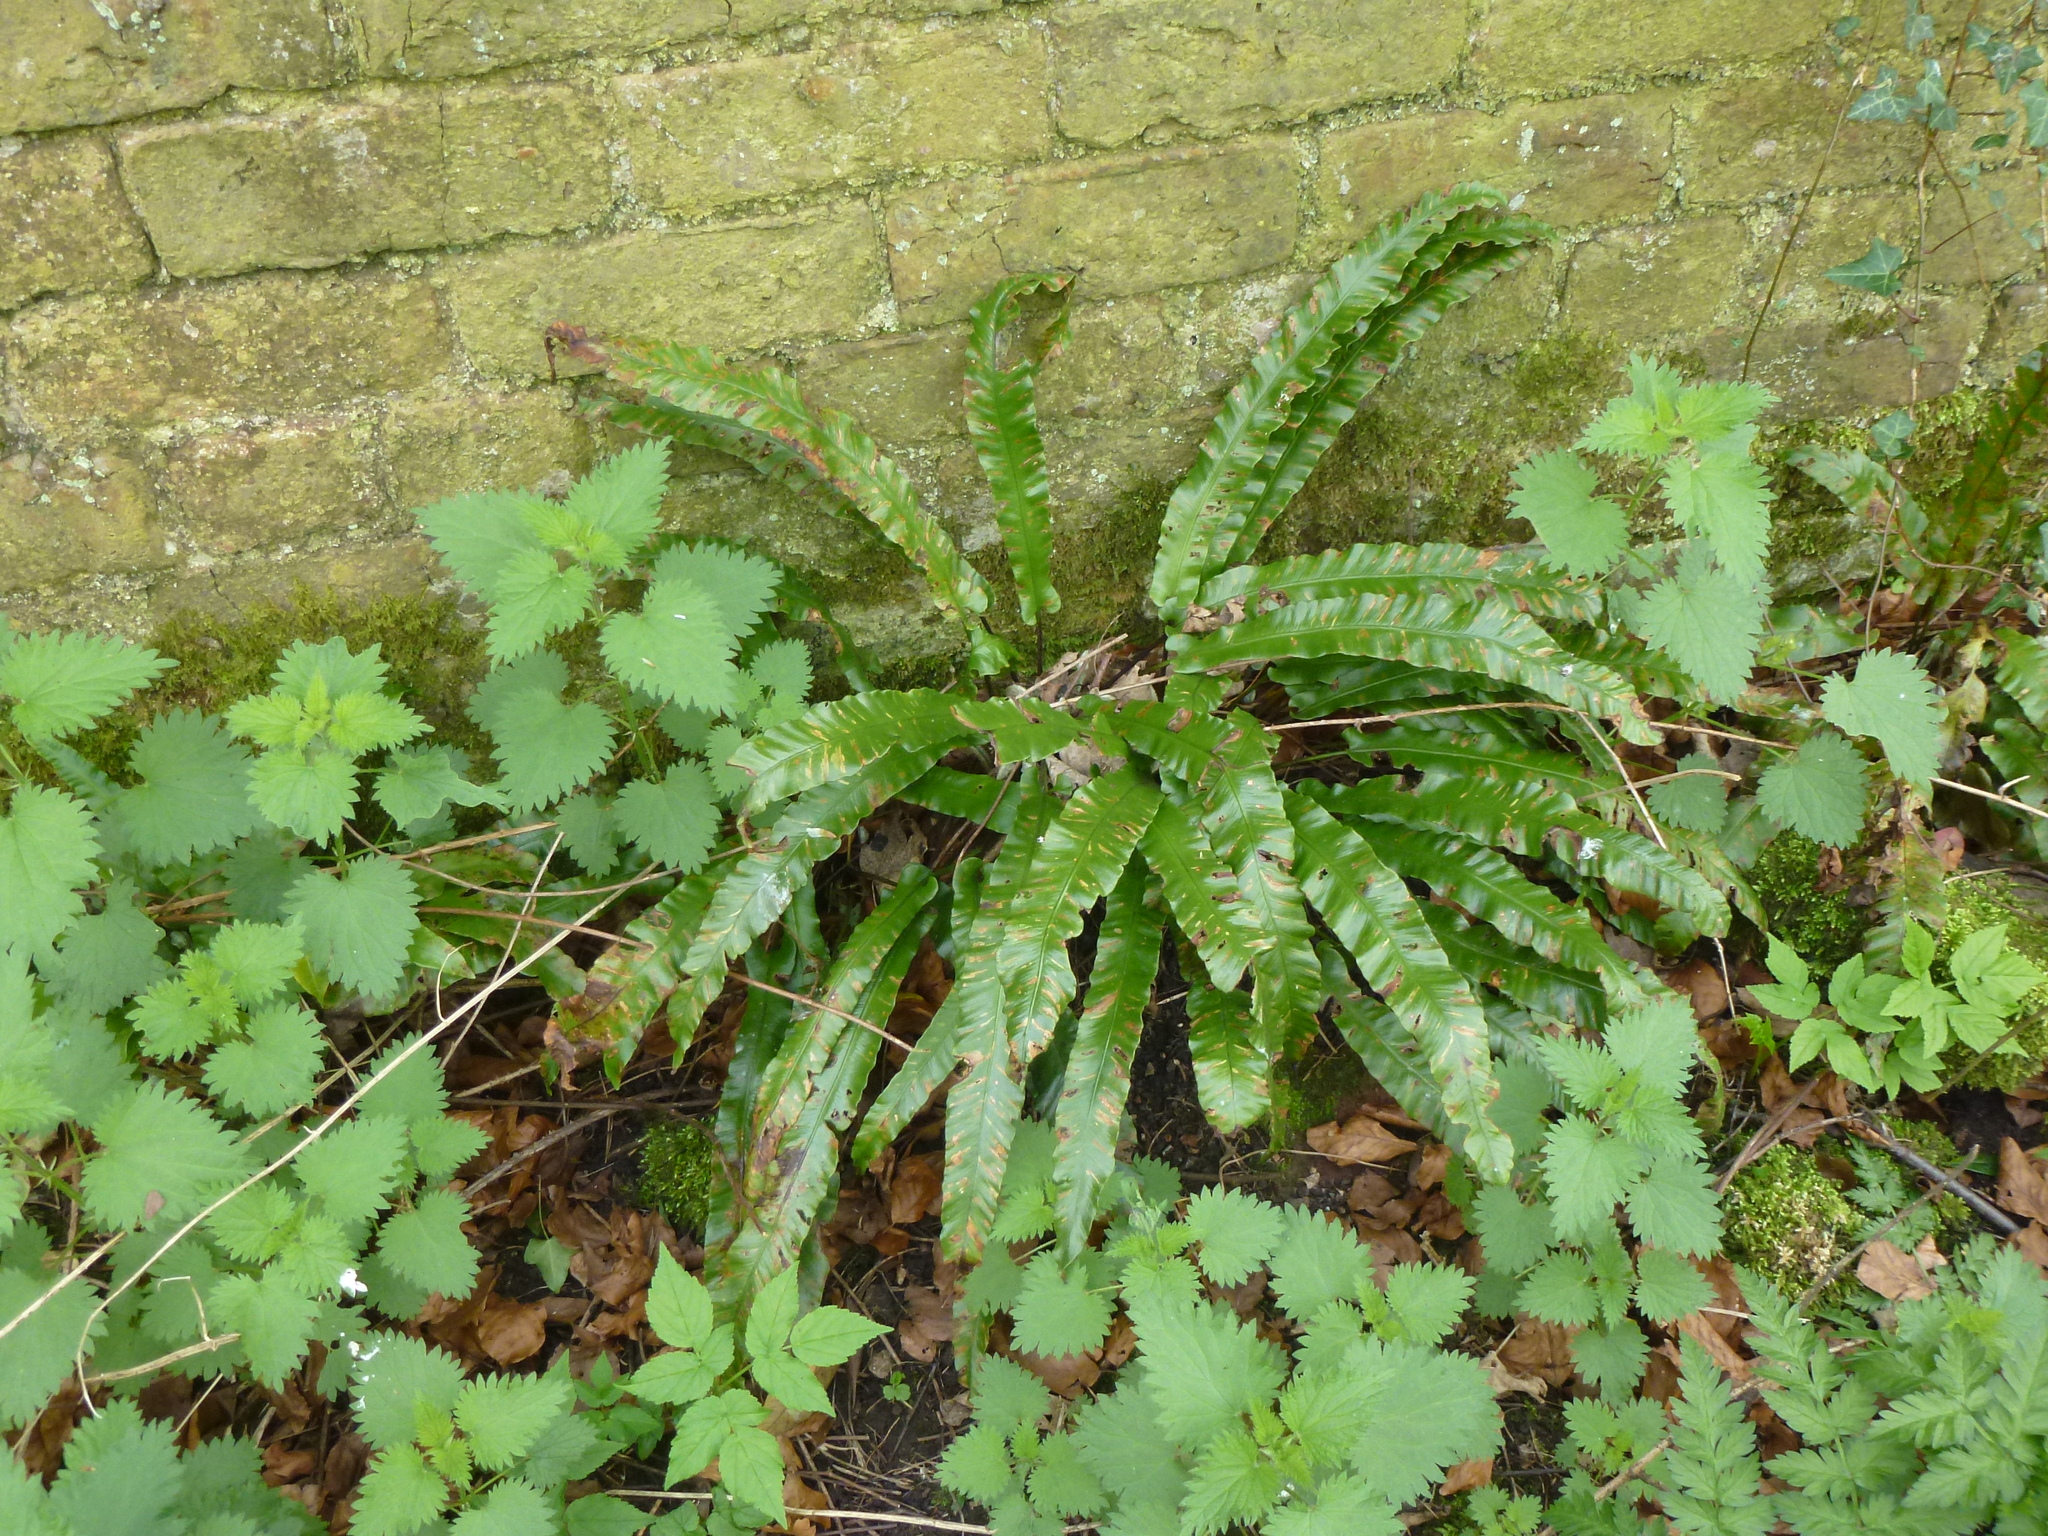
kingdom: Plantae
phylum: Tracheophyta
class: Polypodiopsida
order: Polypodiales
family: Aspleniaceae
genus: Asplenium
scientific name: Asplenium scolopendrium
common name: Hart's-tongue fern
